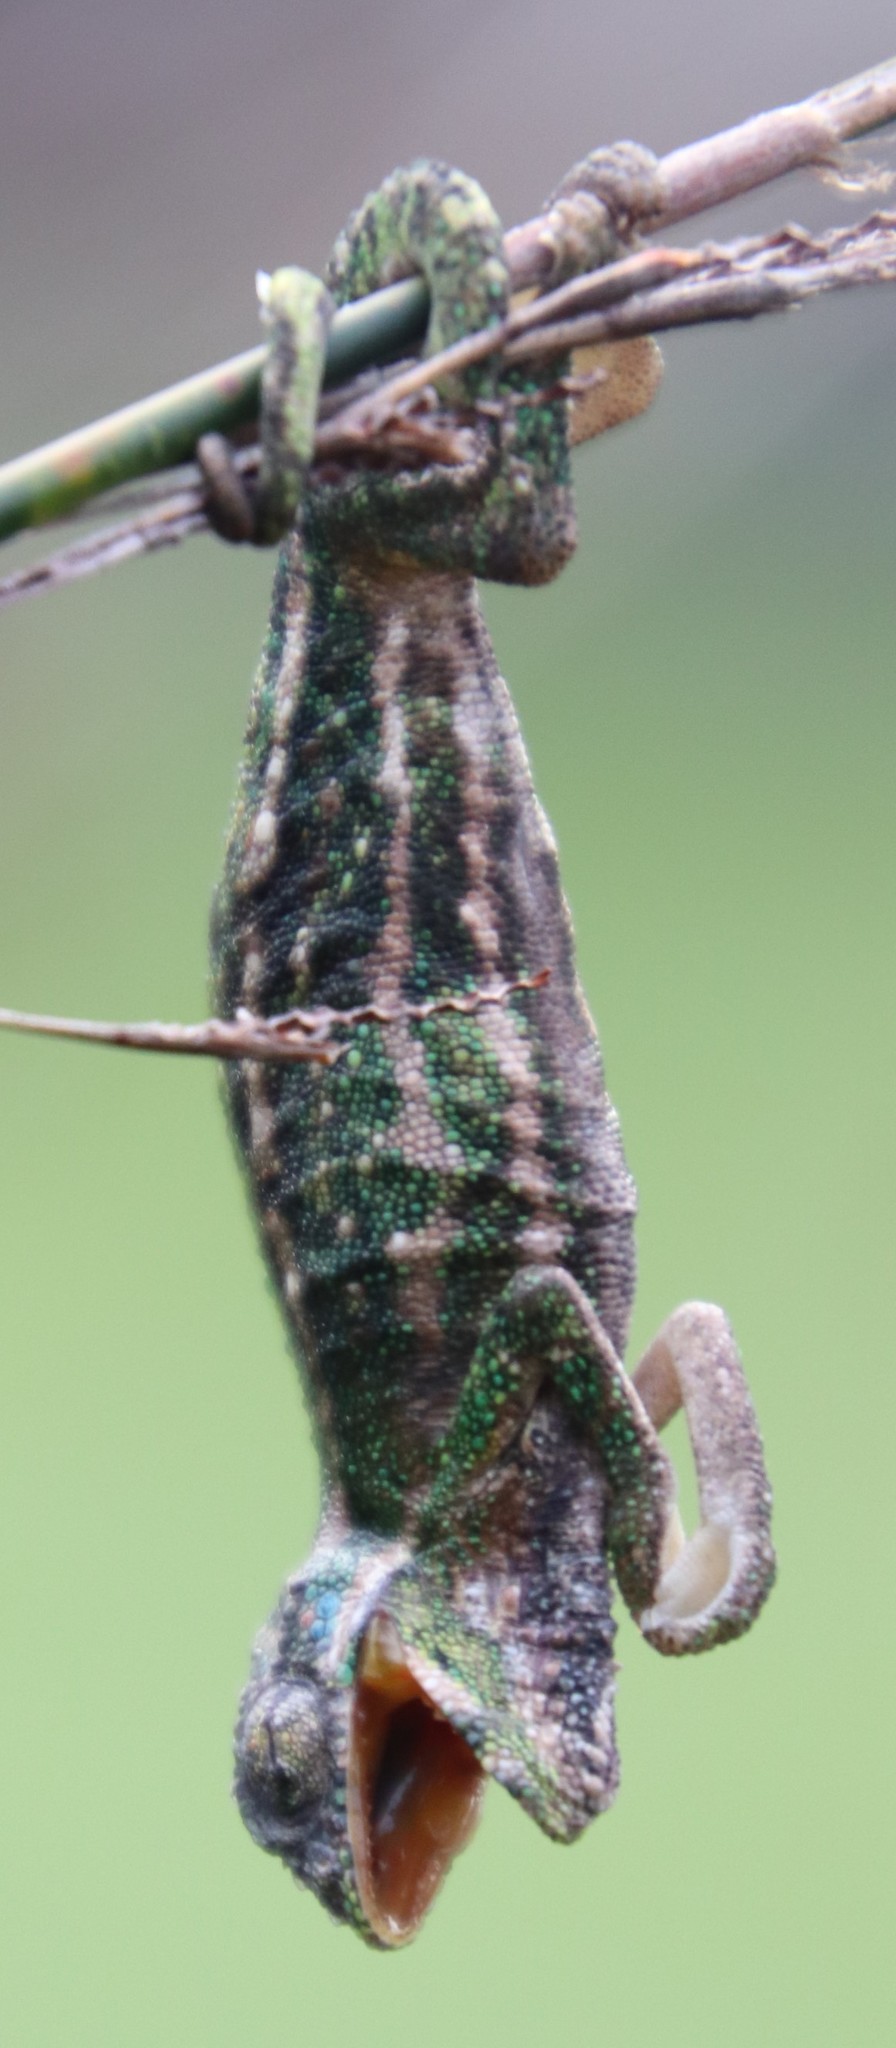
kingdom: Animalia
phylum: Chordata
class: Squamata
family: Chamaeleonidae
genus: Bradypodion
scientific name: Bradypodion pumilum
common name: Cape dwarf chameleon
